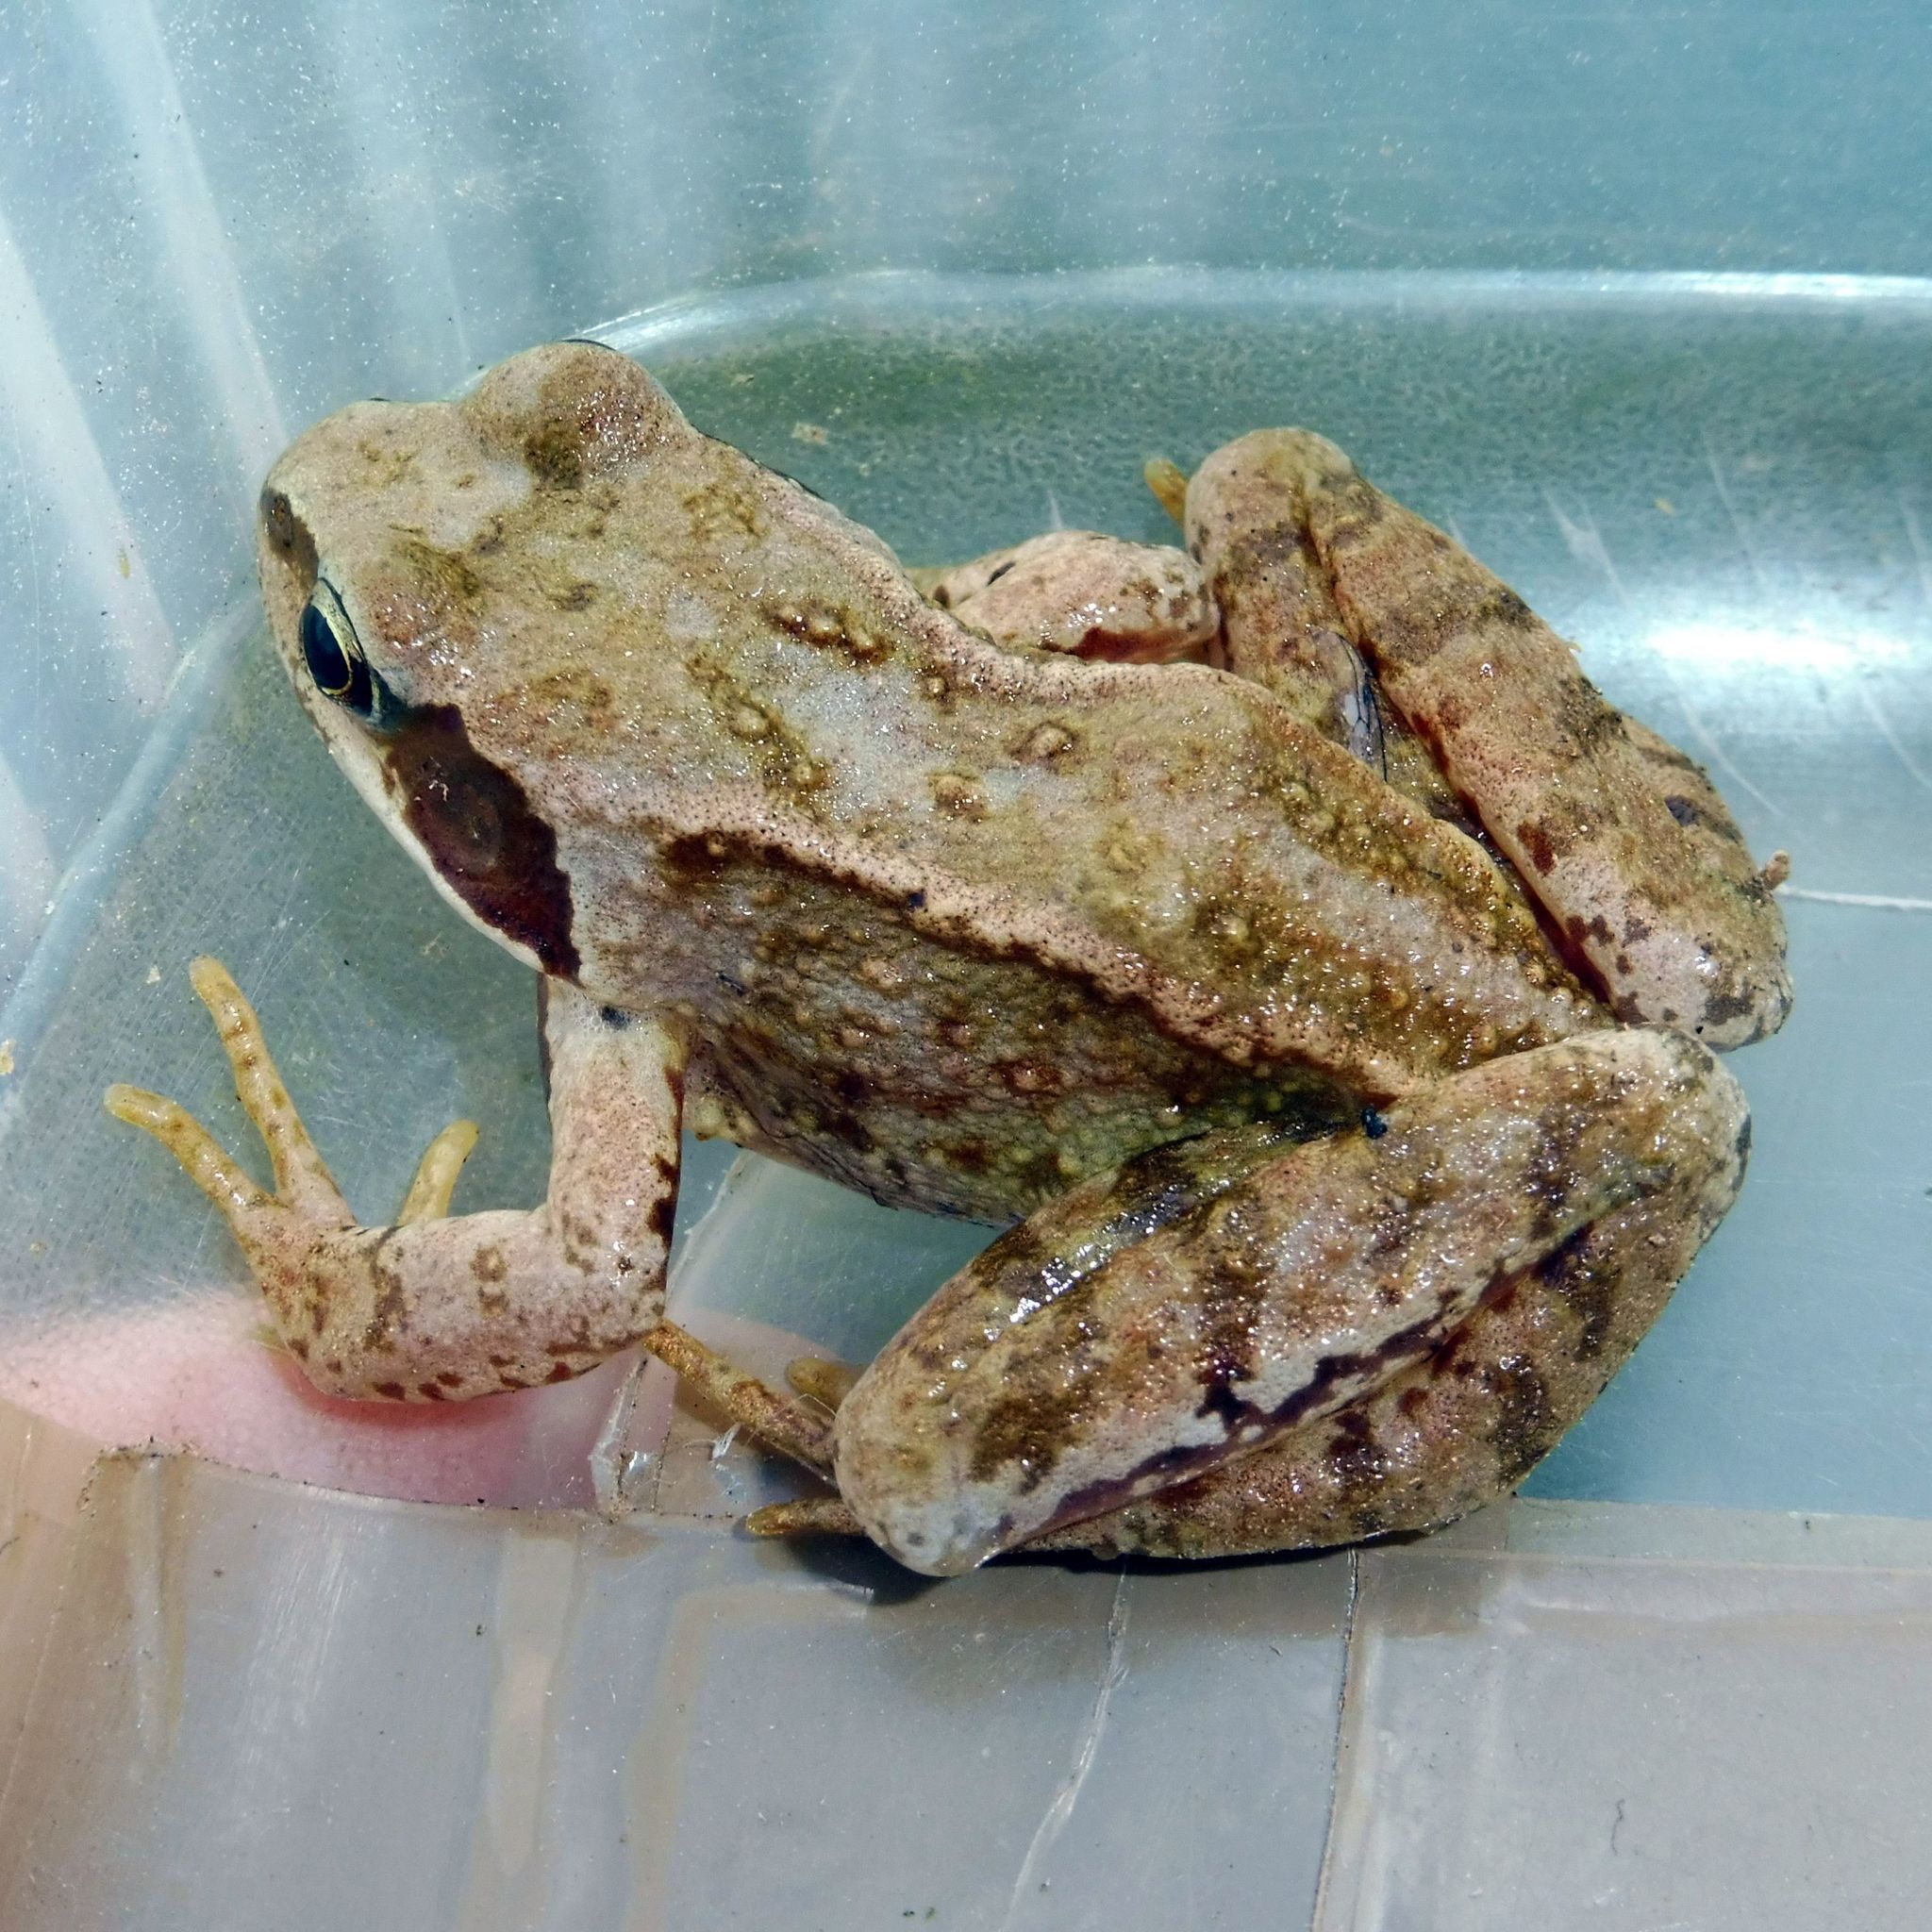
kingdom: Animalia
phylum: Chordata
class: Amphibia
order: Anura
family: Ranidae
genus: Rana
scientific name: Rana temporaria
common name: Common frog
